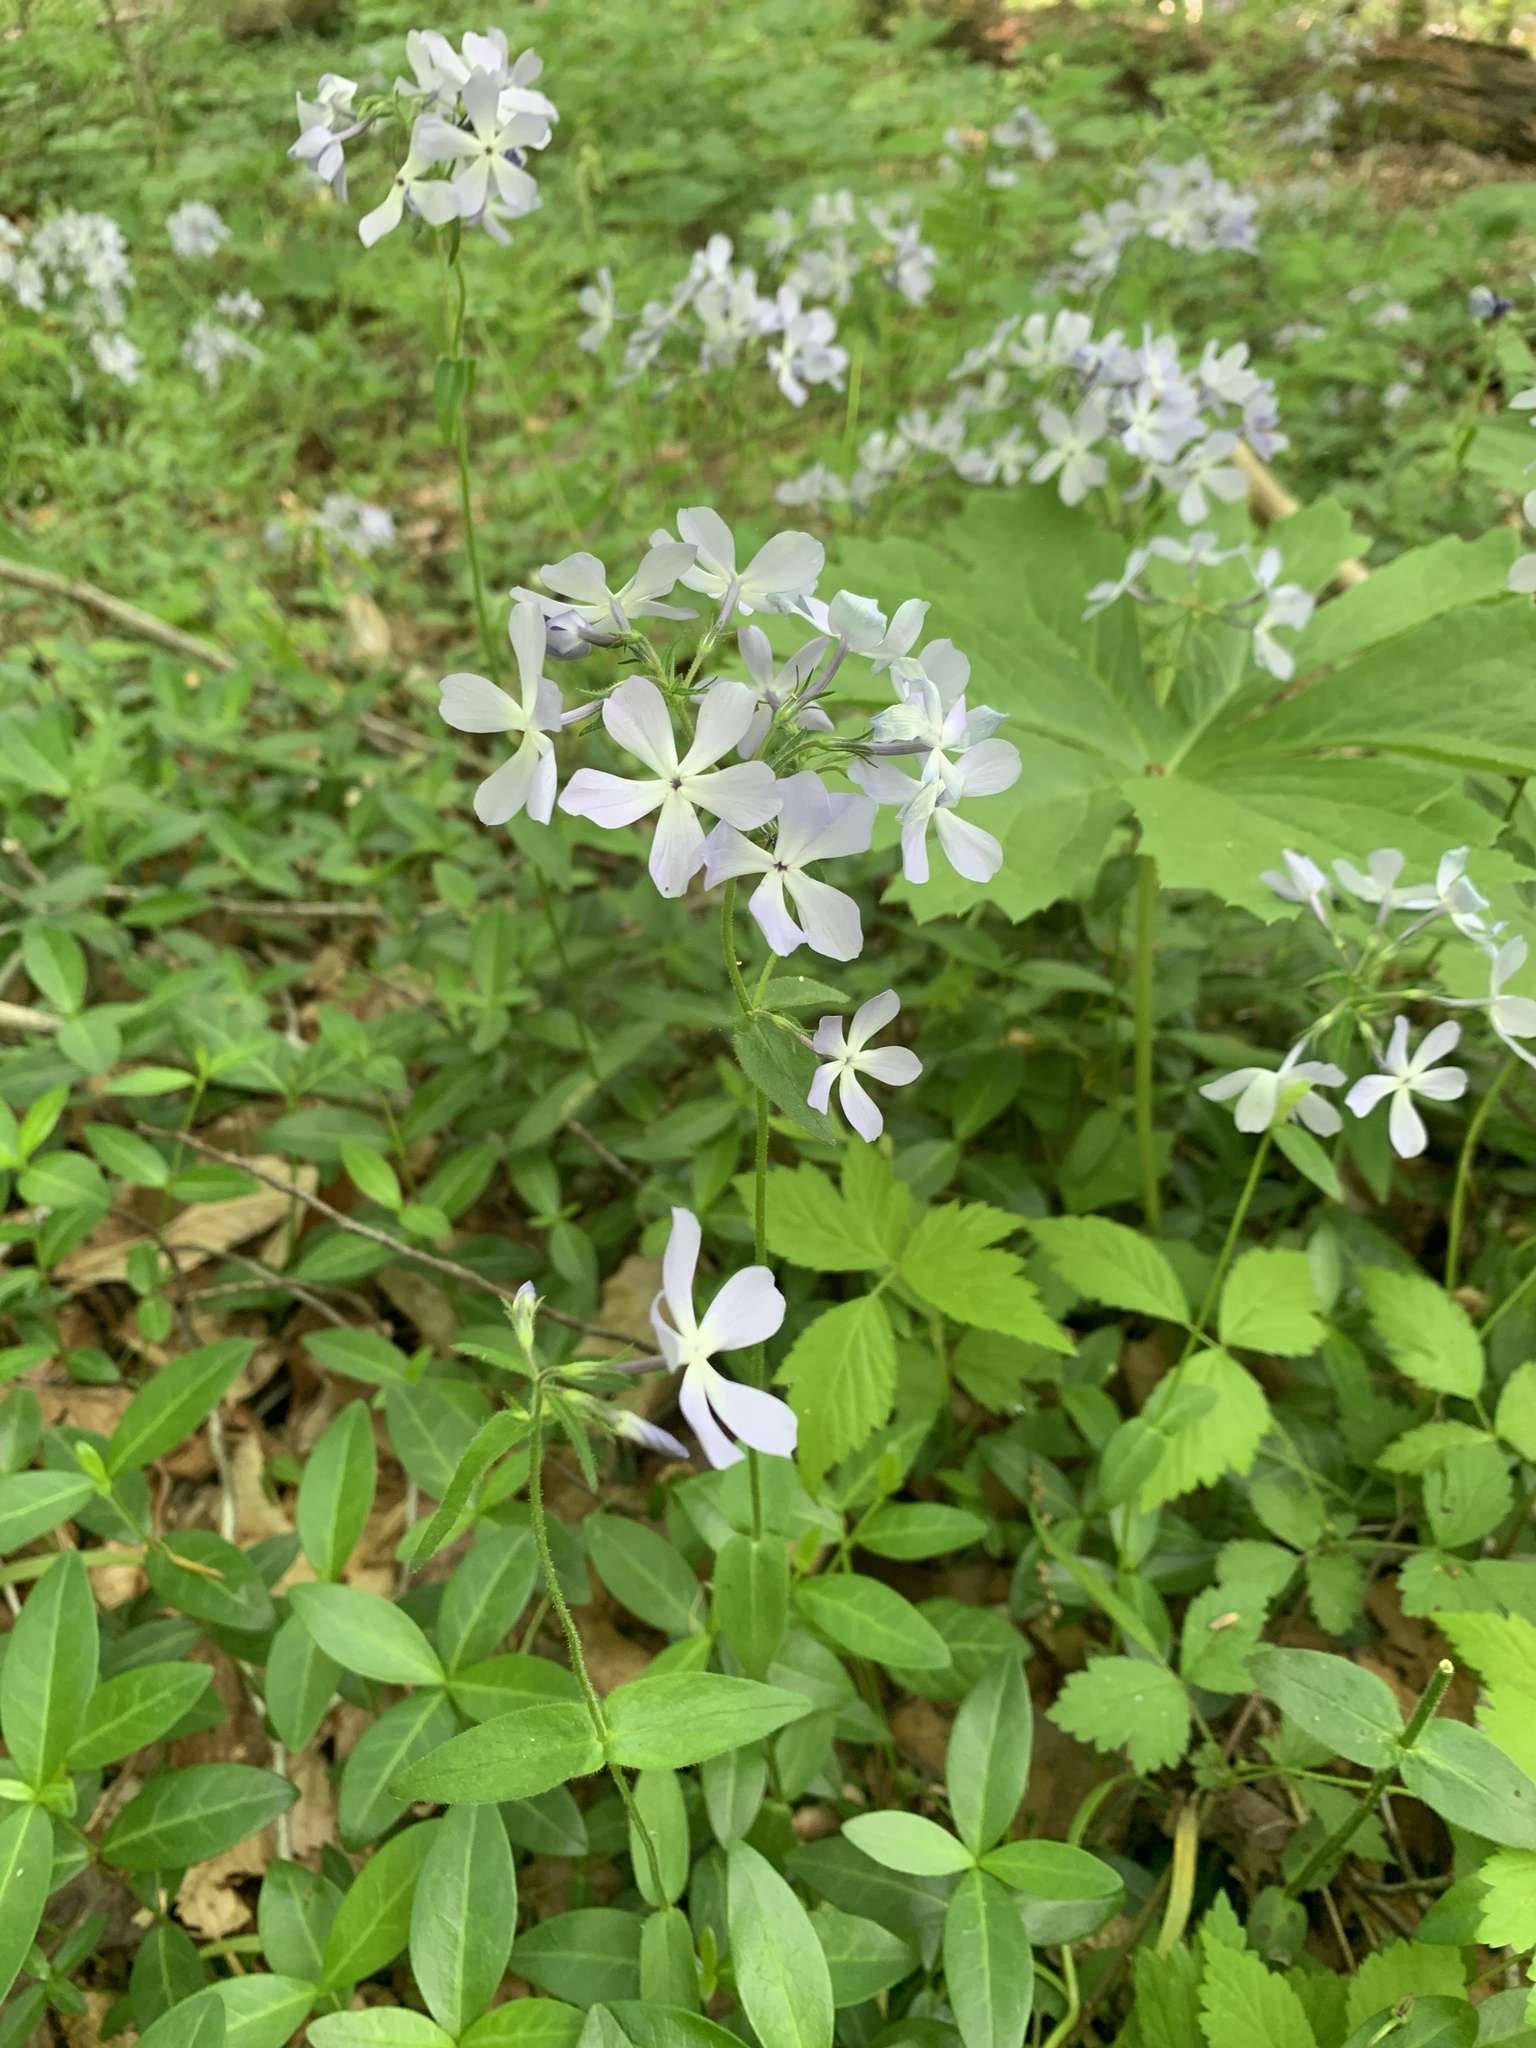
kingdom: Plantae
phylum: Tracheophyta
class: Magnoliopsida
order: Ericales
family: Polemoniaceae
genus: Phlox
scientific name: Phlox divaricata
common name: Blue phlox
